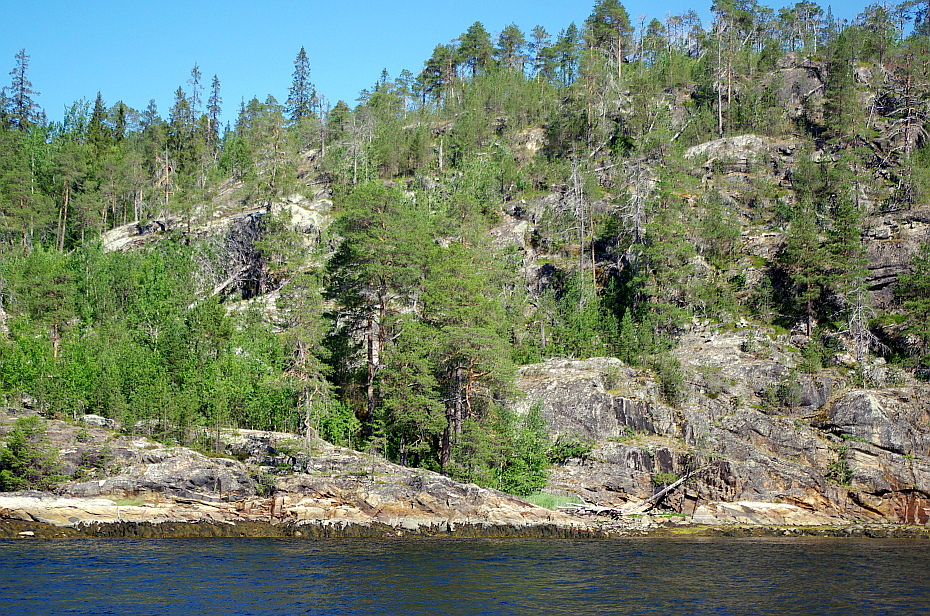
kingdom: Plantae
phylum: Tracheophyta
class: Pinopsida
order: Pinales
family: Pinaceae
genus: Pinus
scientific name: Pinus sylvestris
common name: Scots pine
